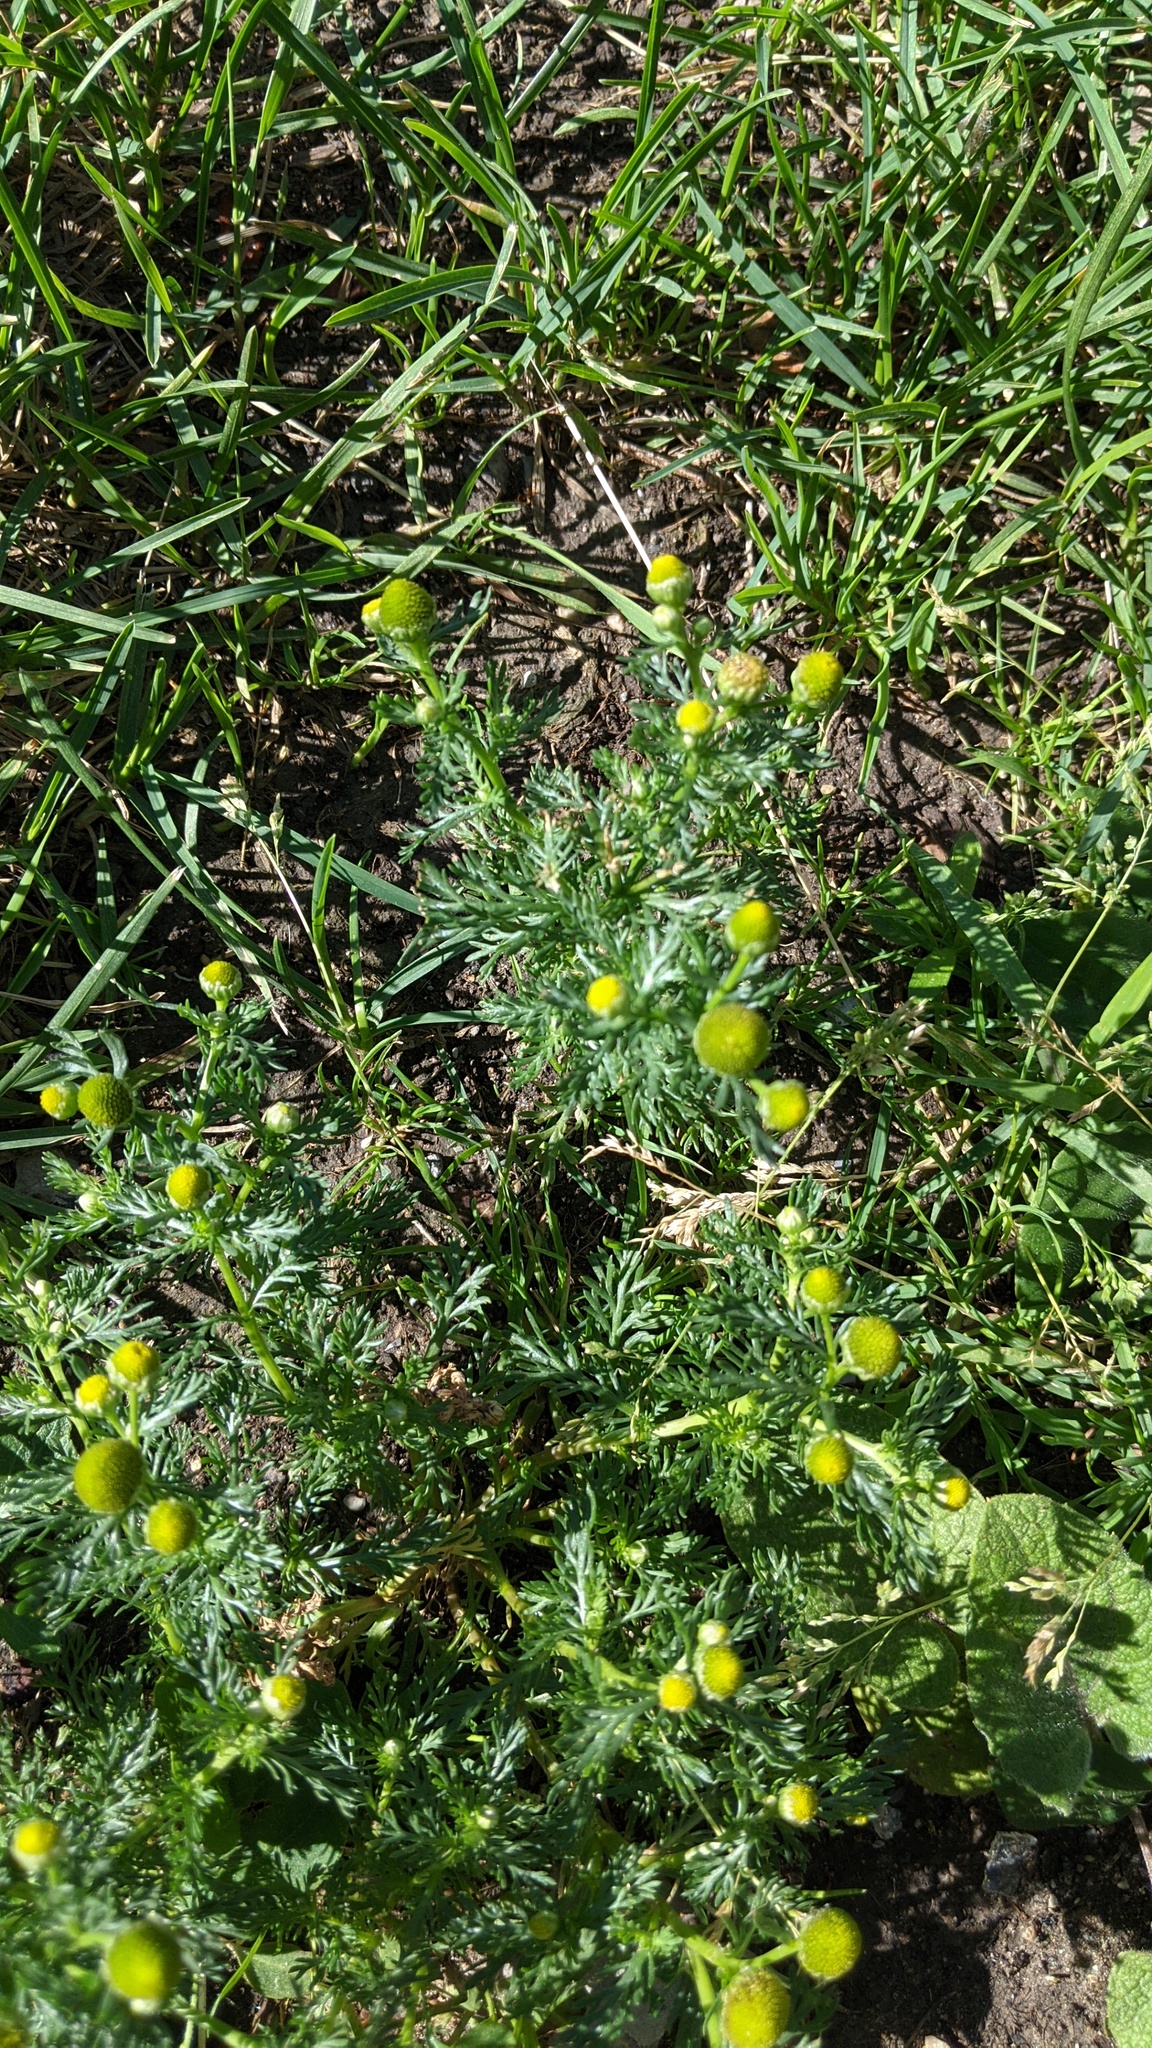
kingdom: Plantae
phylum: Tracheophyta
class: Magnoliopsida
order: Asterales
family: Asteraceae
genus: Matricaria
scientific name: Matricaria discoidea
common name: Disc mayweed
